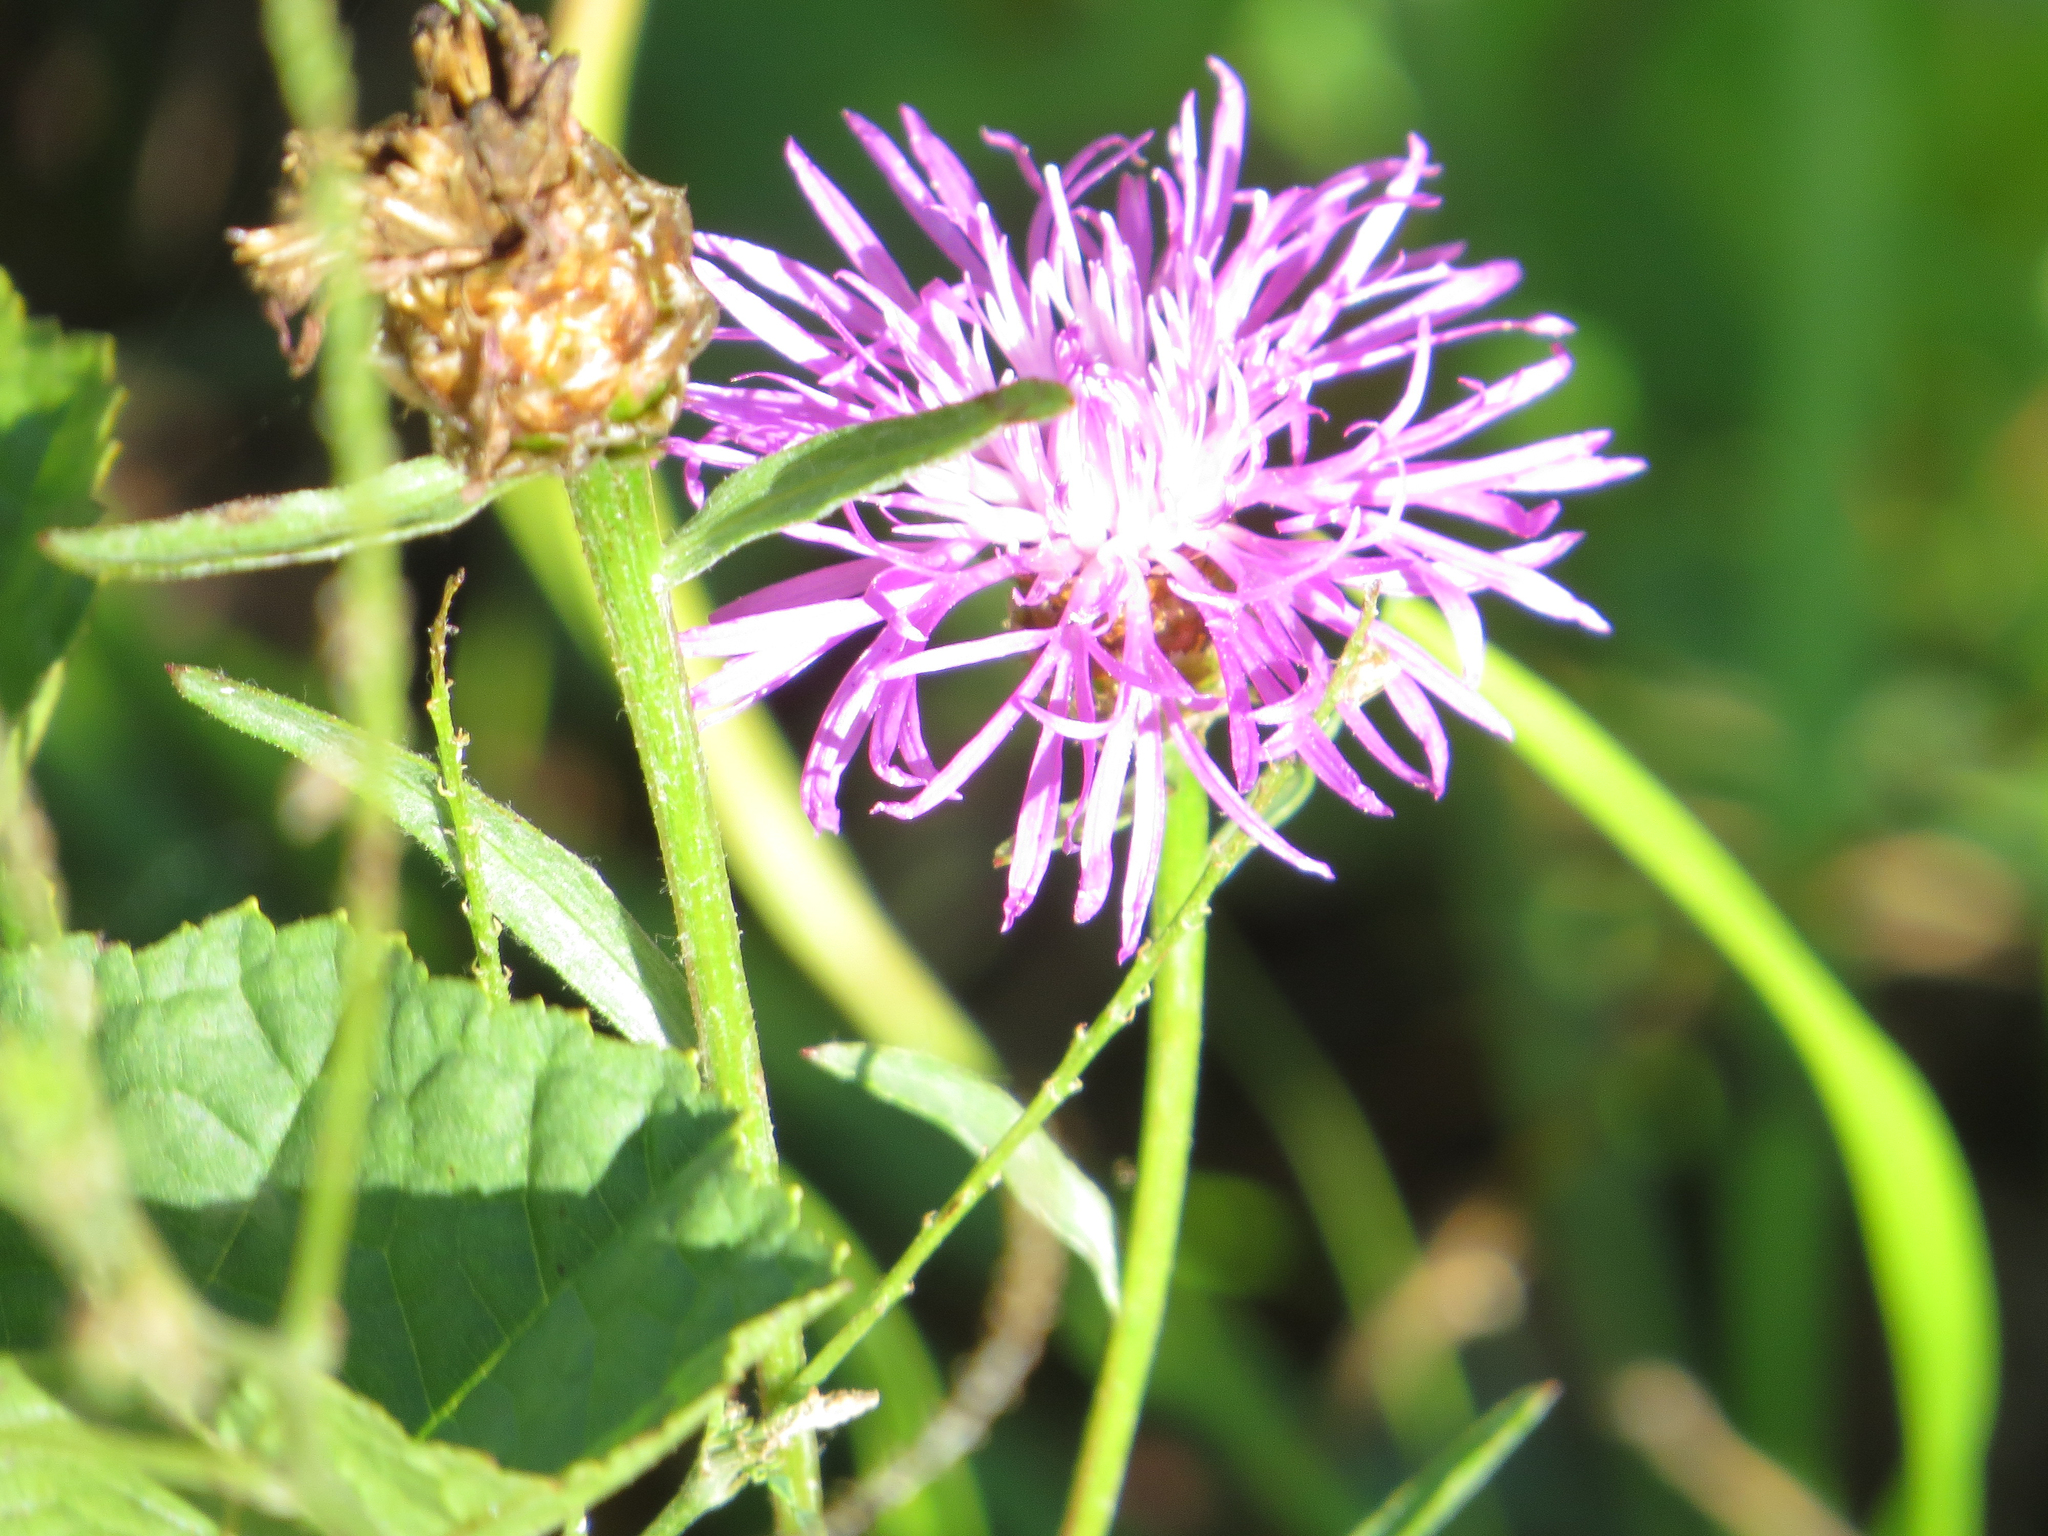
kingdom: Plantae
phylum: Tracheophyta
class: Magnoliopsida
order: Asterales
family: Asteraceae
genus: Centaurea
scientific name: Centaurea jacea
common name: Brown knapweed
